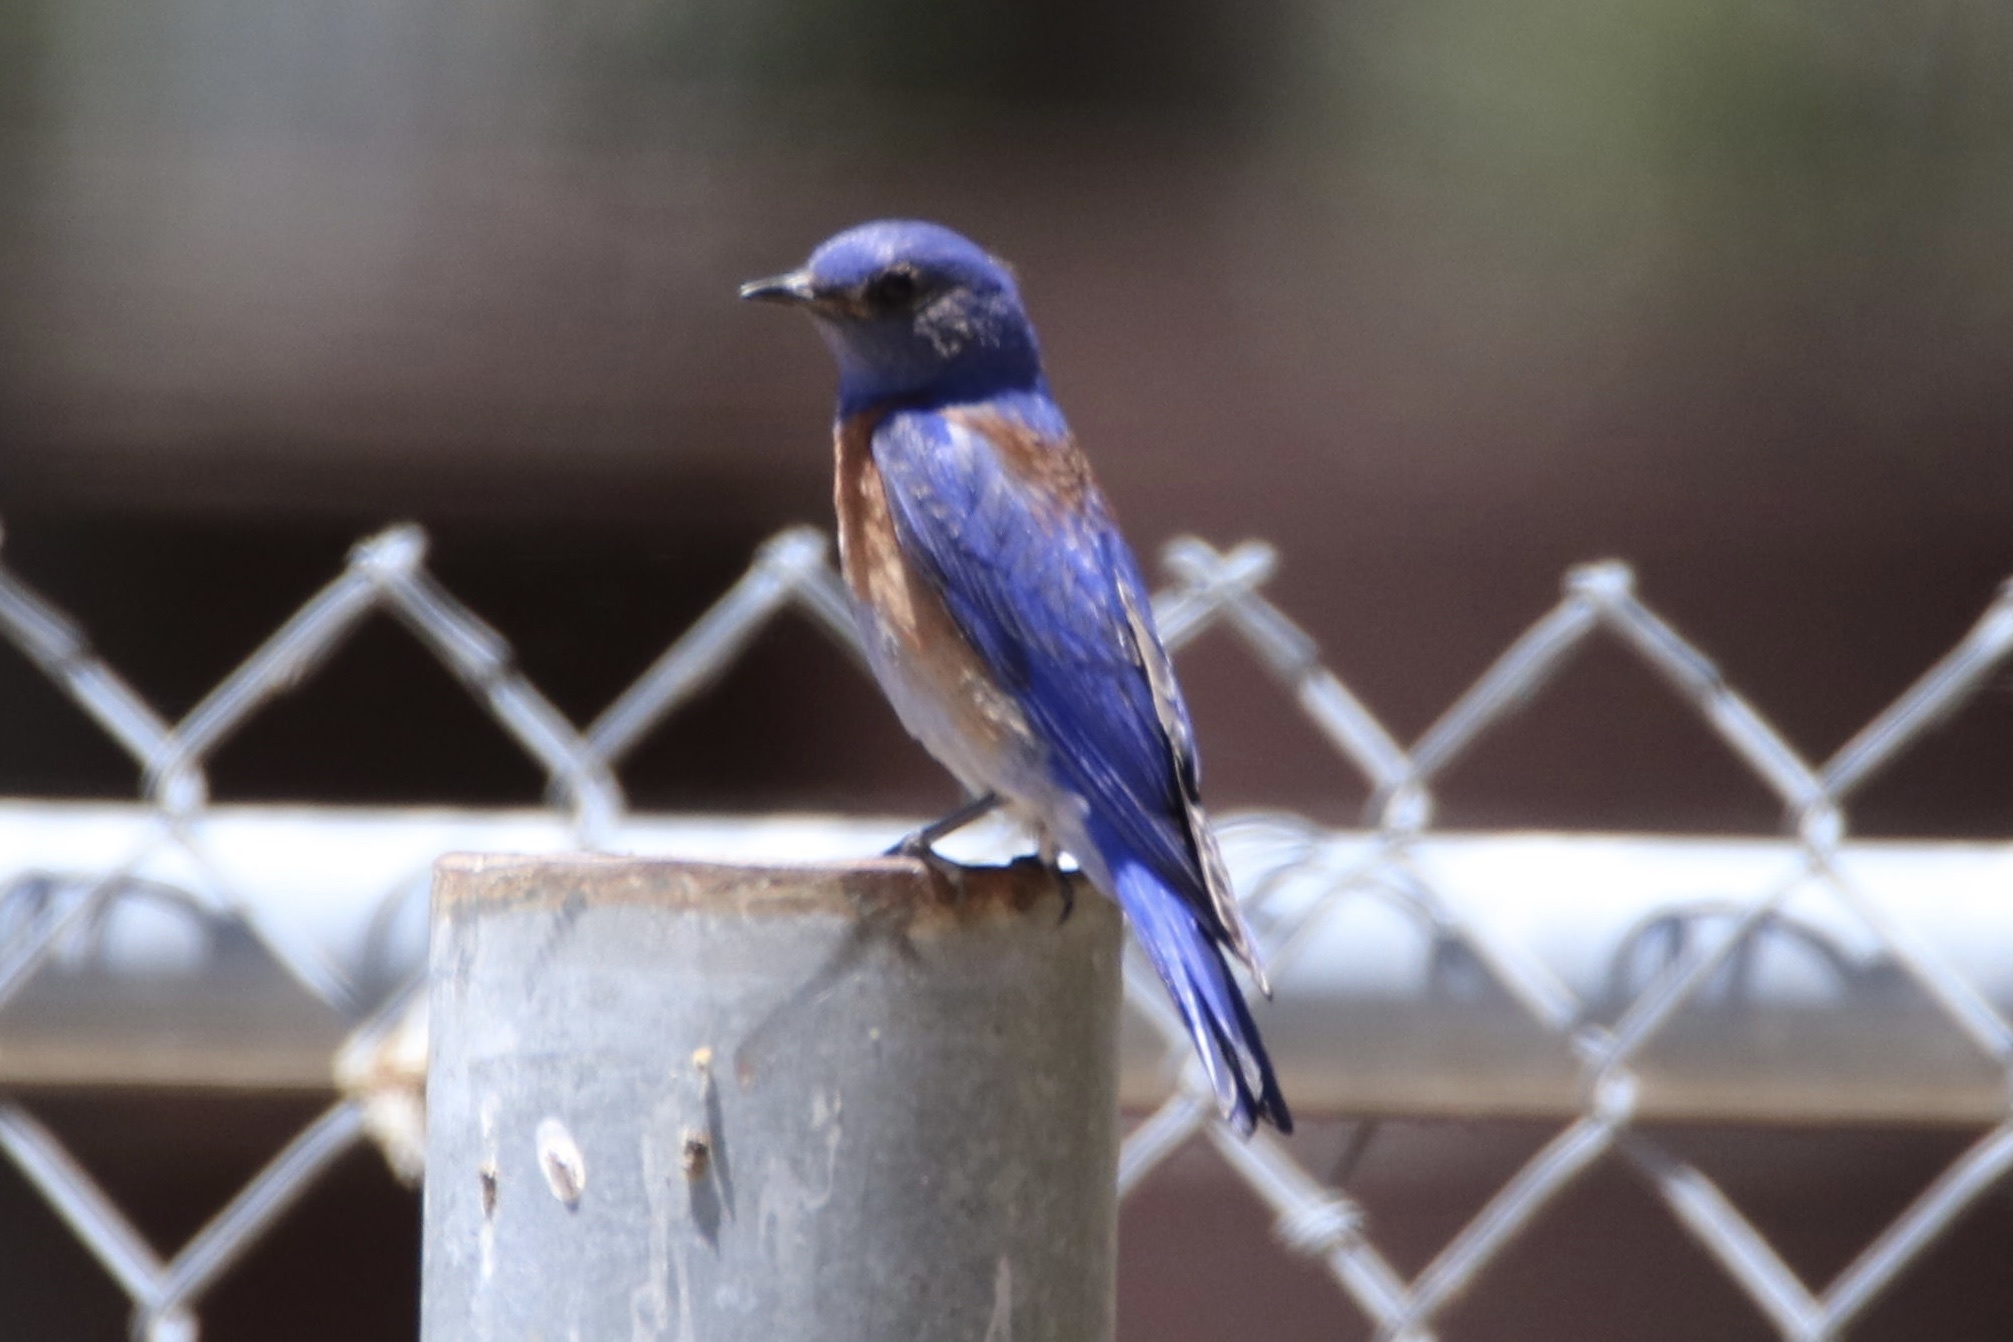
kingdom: Animalia
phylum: Chordata
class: Aves
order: Passeriformes
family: Turdidae
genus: Sialia
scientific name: Sialia mexicana
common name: Western bluebird
